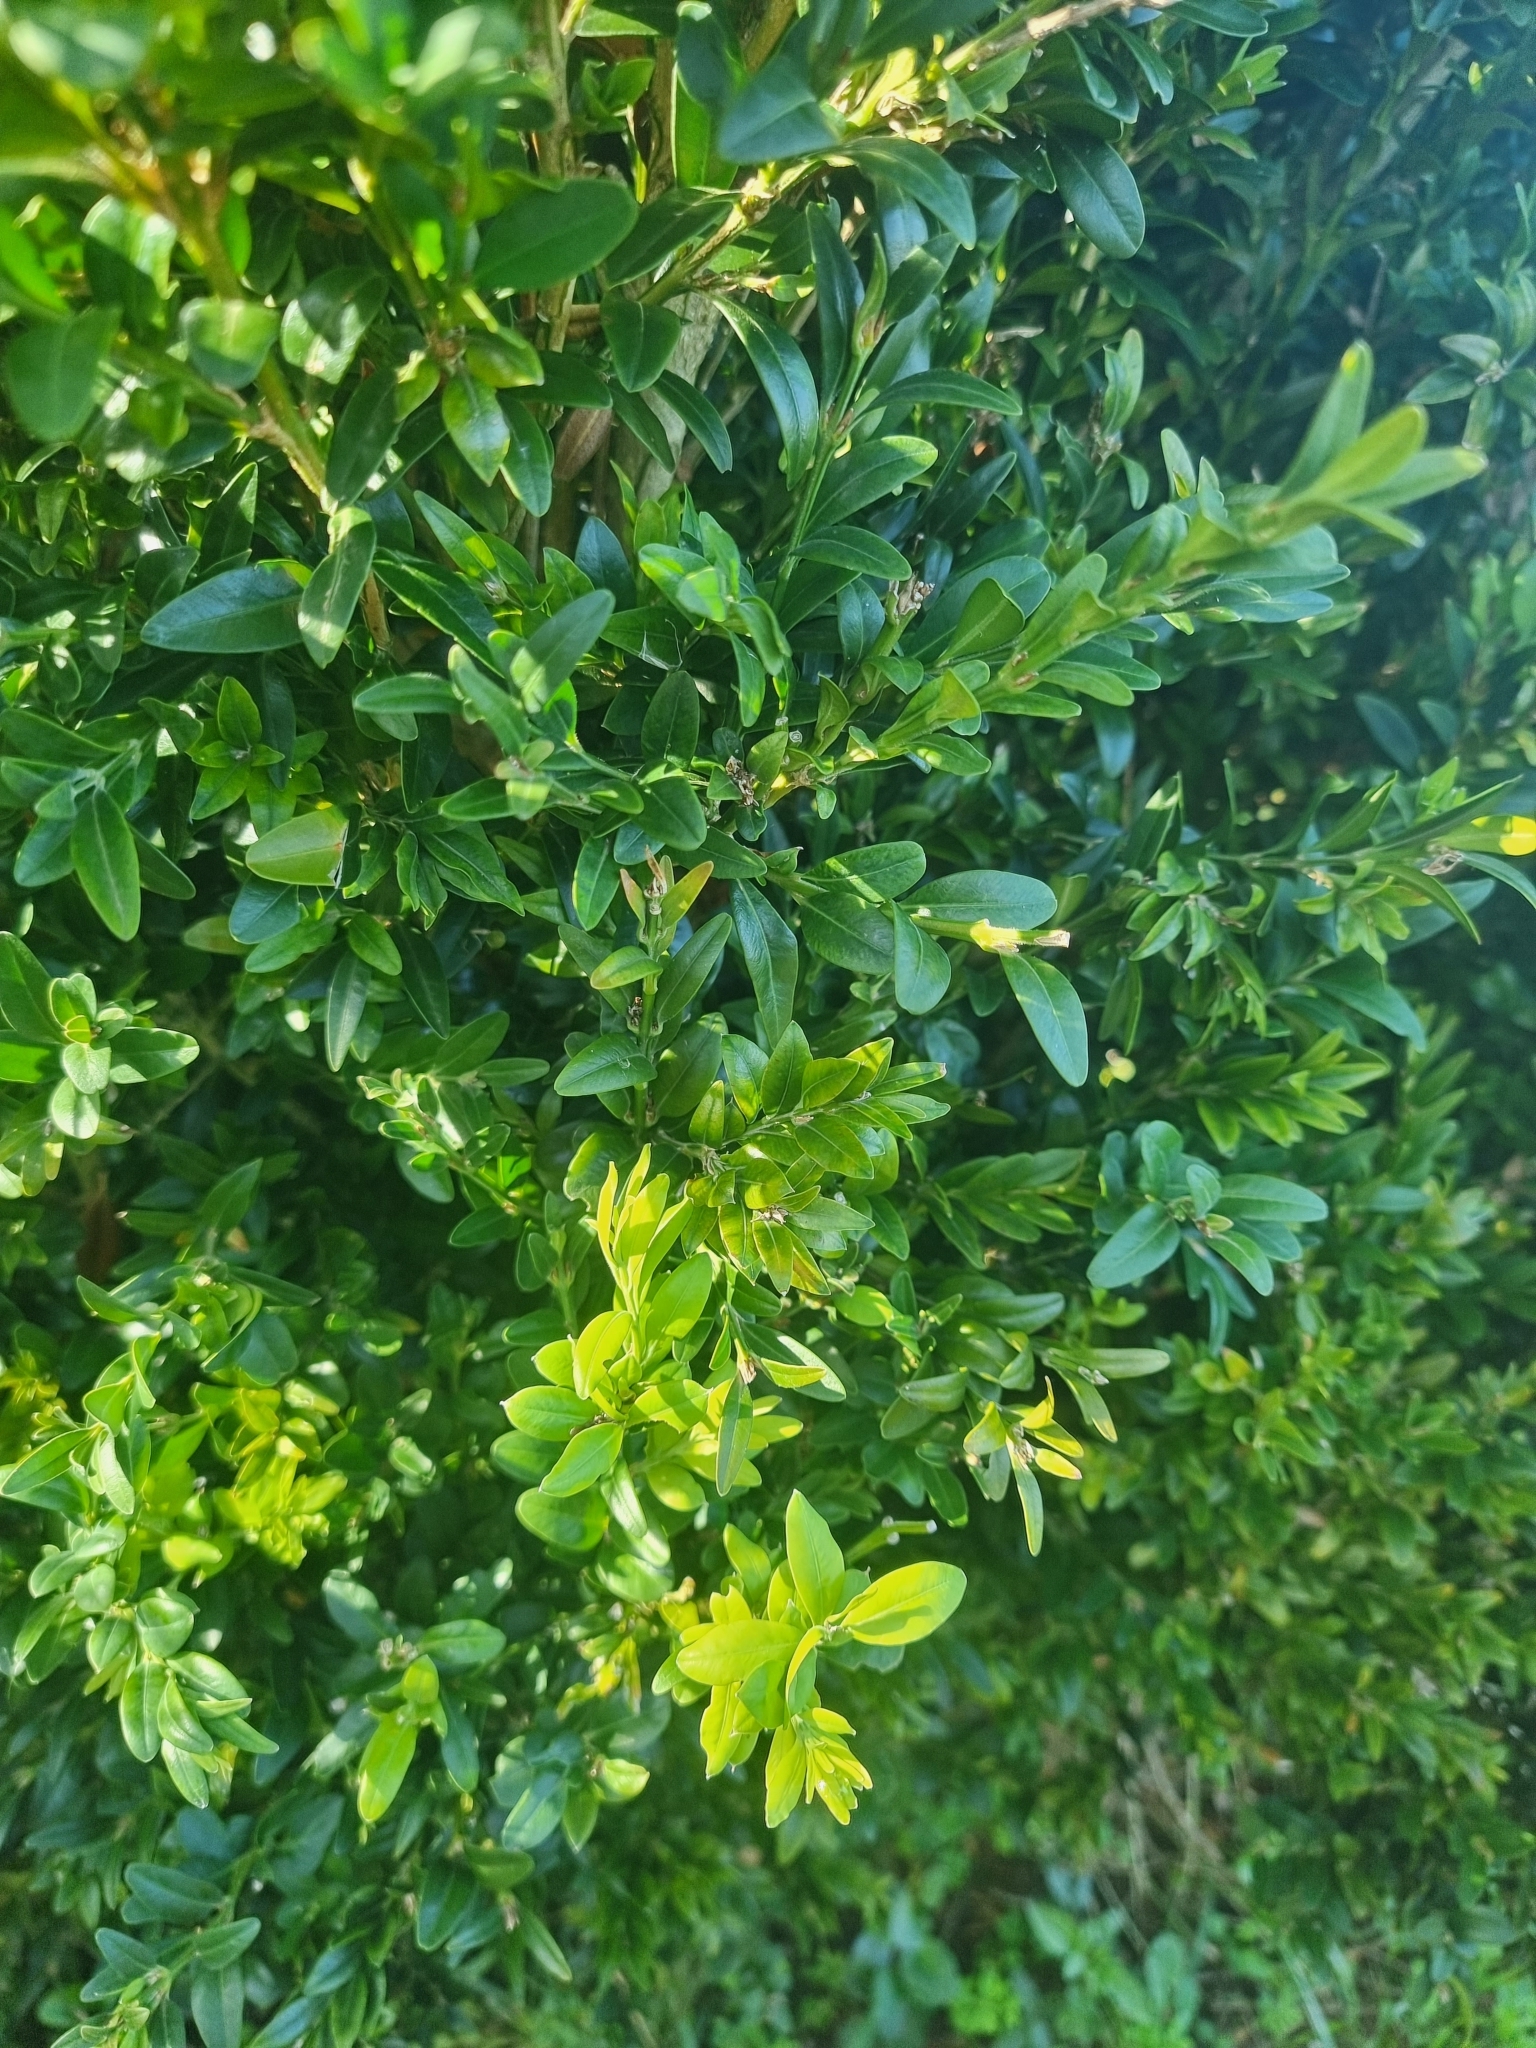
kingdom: Plantae
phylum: Tracheophyta
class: Magnoliopsida
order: Buxales
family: Buxaceae
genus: Buxus
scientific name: Buxus sempervirens
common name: Box
